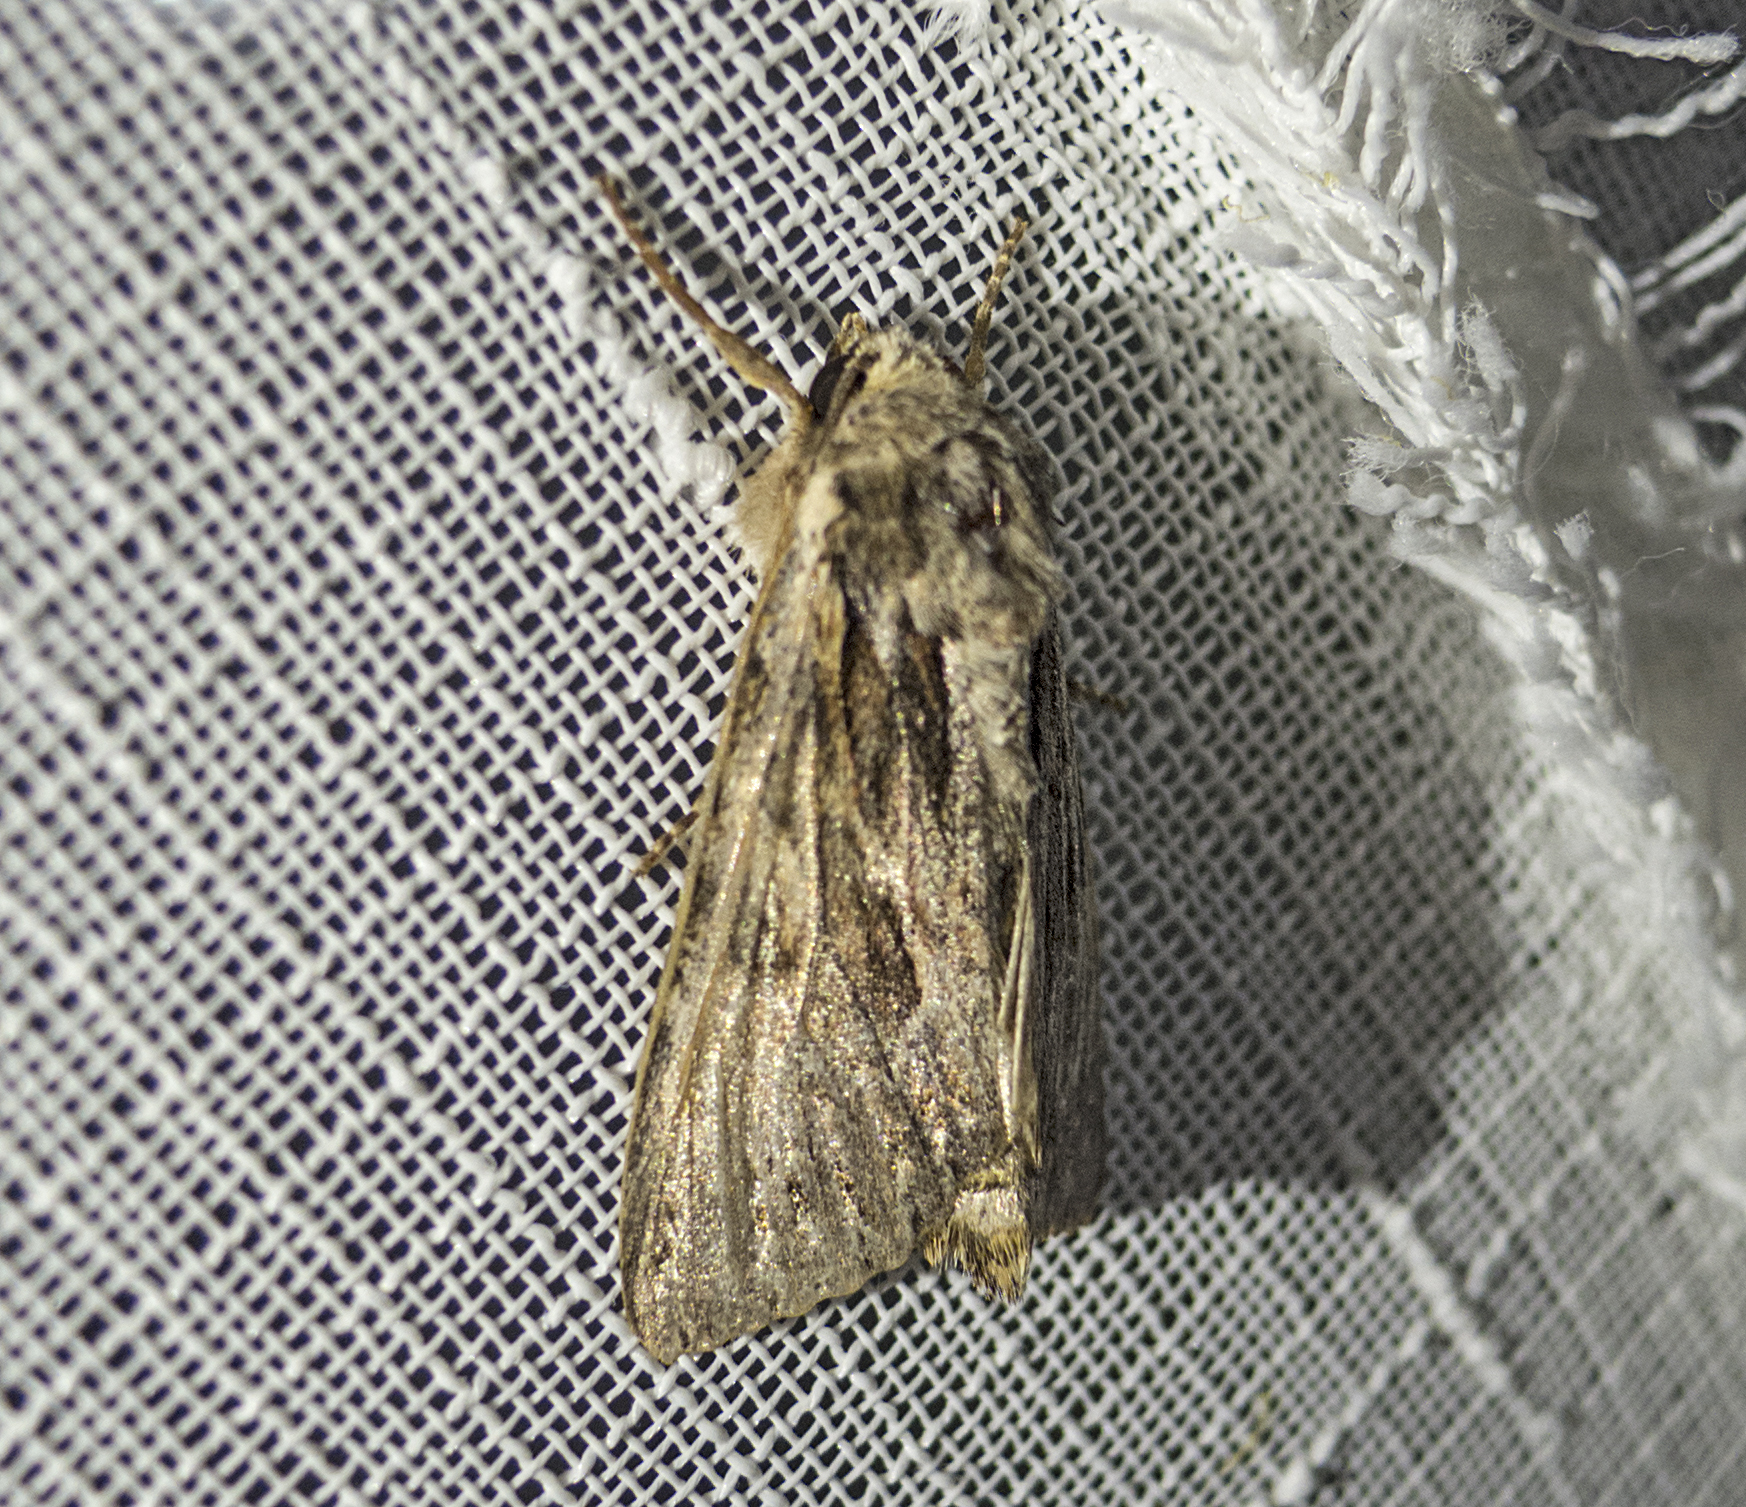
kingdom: Animalia
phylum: Arthropoda
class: Insecta
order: Lepidoptera
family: Noctuidae
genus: Apamea
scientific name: Apamea
